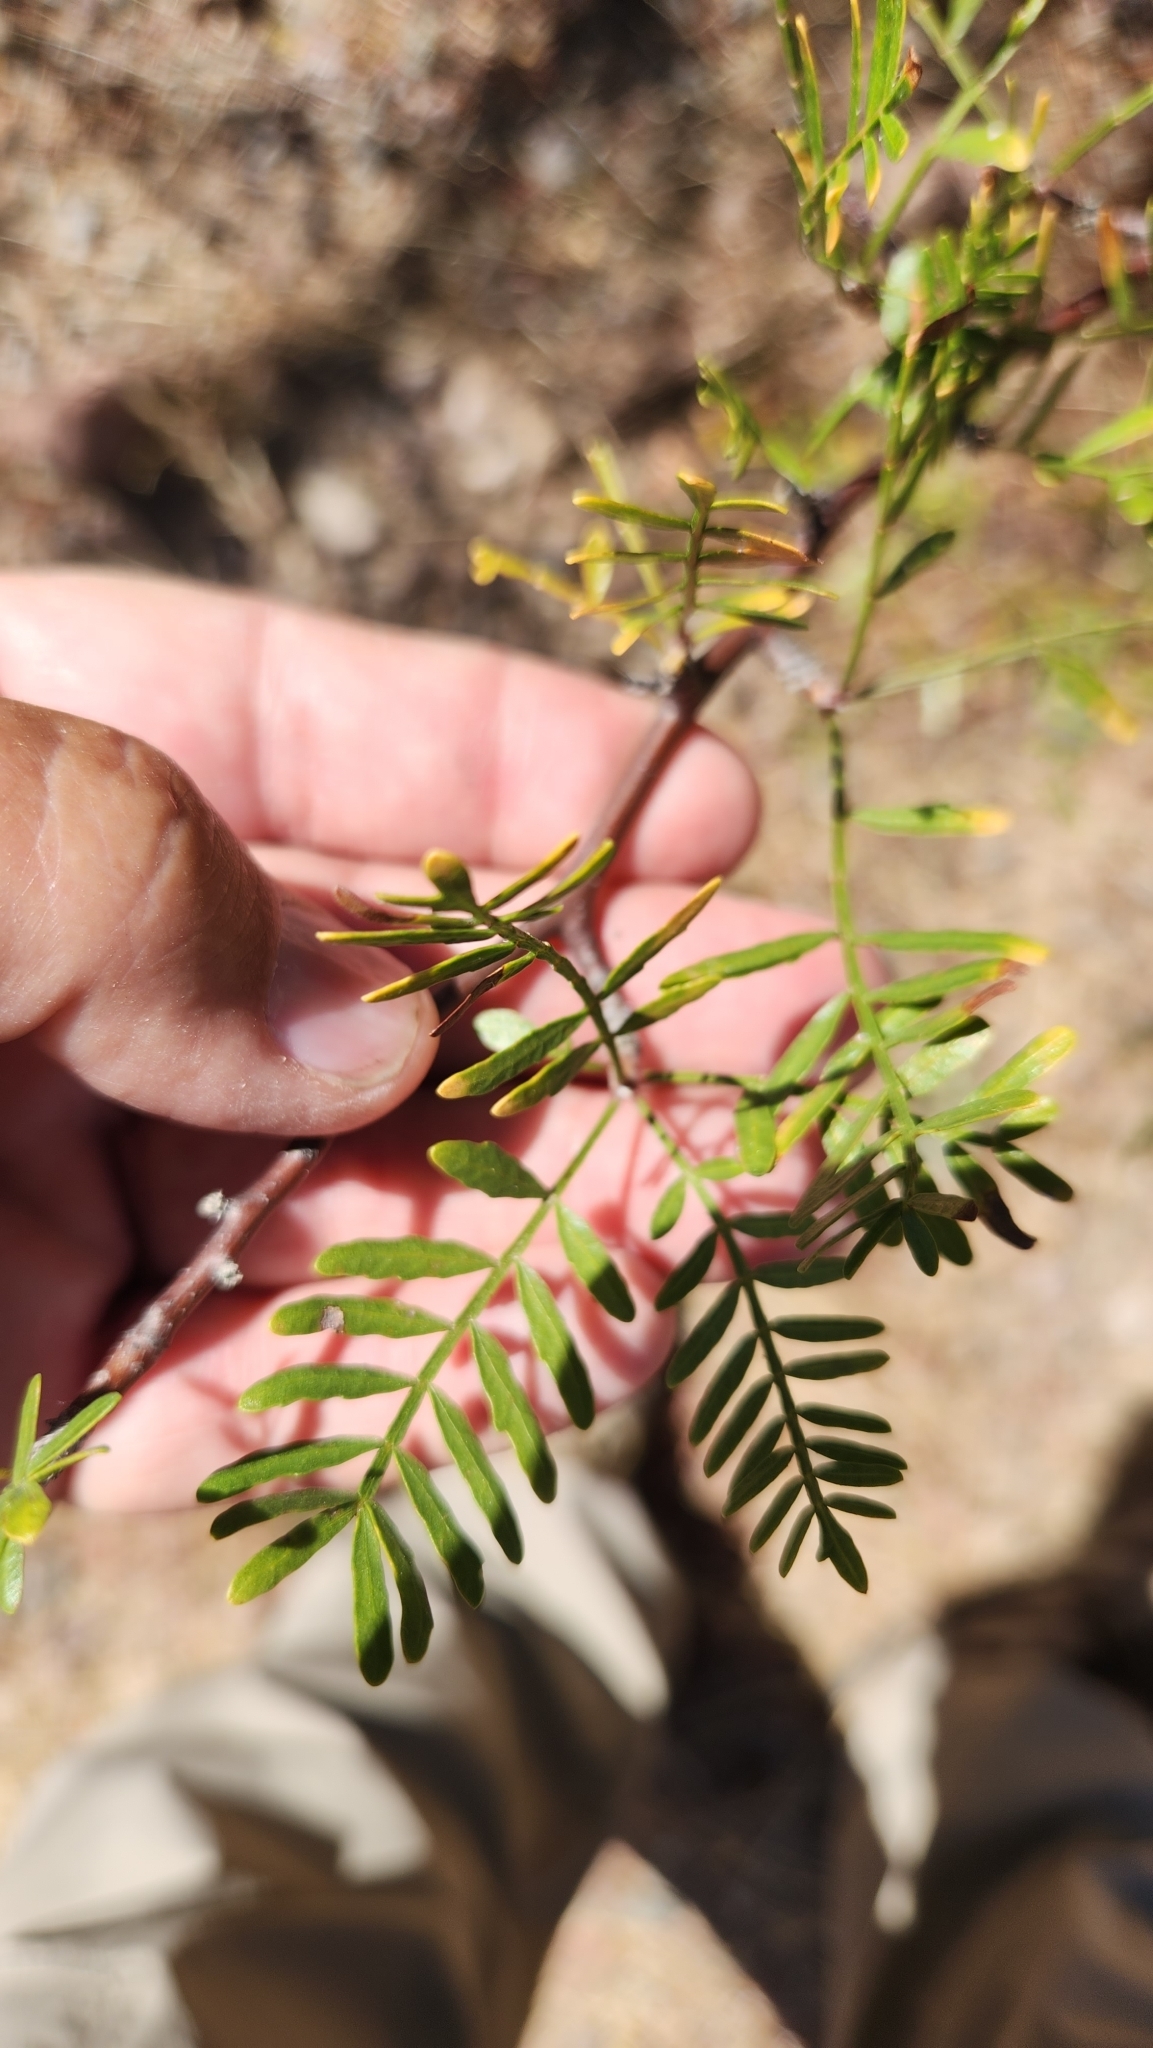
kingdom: Plantae
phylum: Tracheophyta
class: Magnoliopsida
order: Sapindales
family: Burseraceae
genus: Bursera
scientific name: Bursera microphylla
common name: Elephant tree
